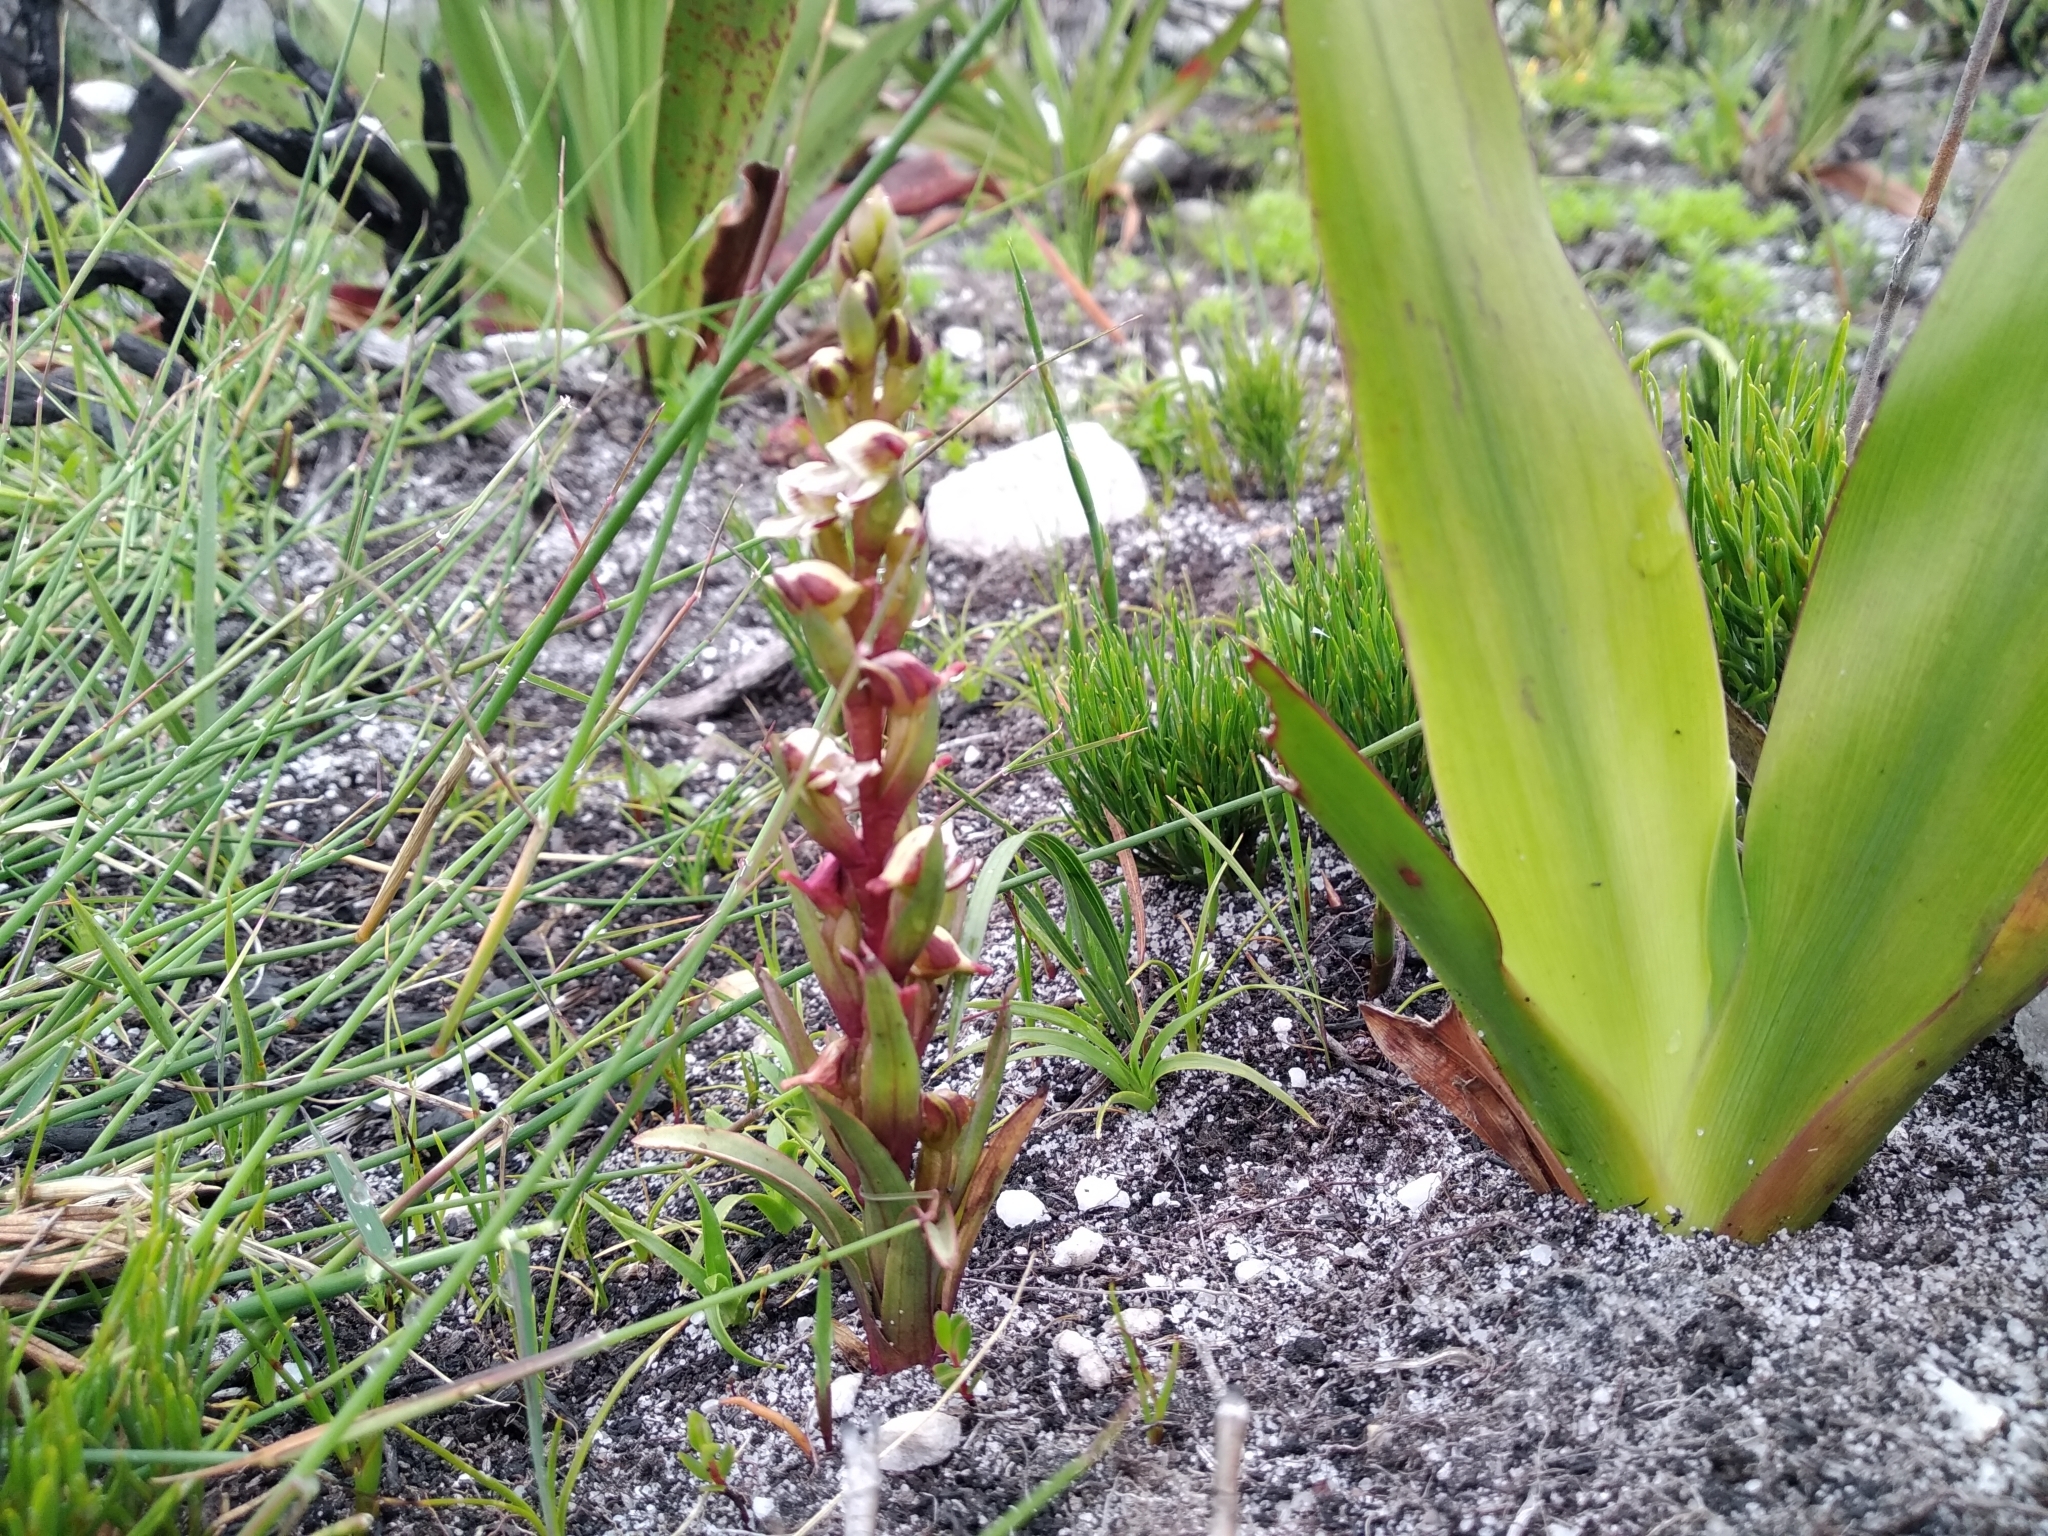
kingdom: Plantae
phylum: Tracheophyta
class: Liliopsida
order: Asparagales
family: Orchidaceae
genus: Disa
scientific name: Disa ocellata
